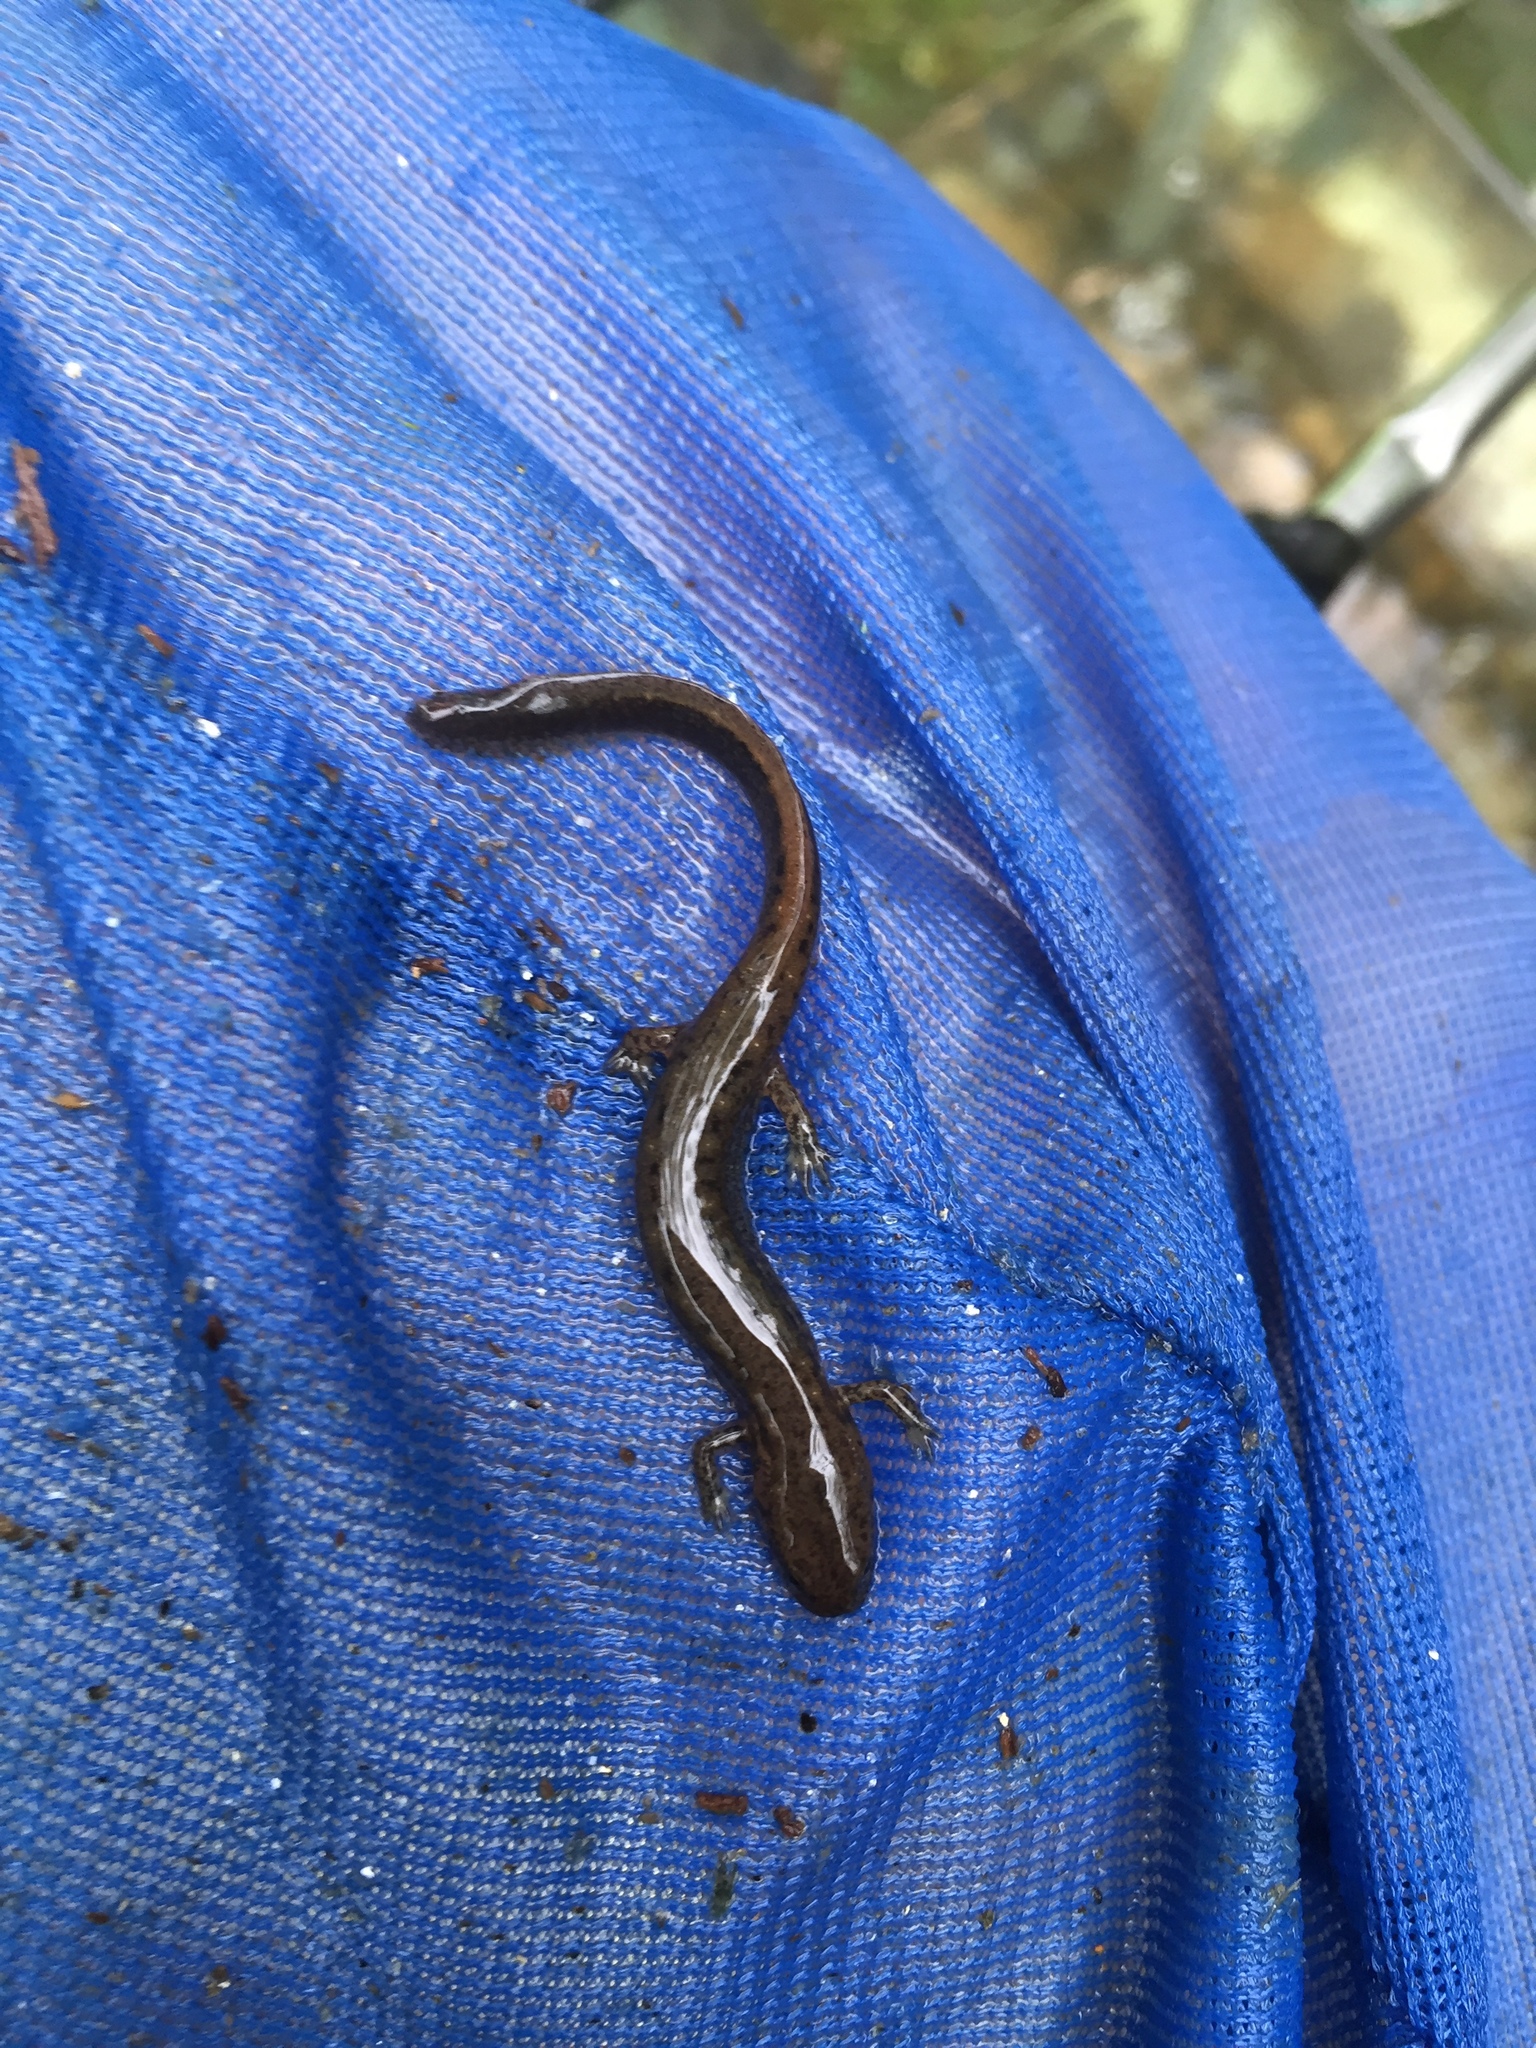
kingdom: Animalia
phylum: Chordata
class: Amphibia
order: Caudata
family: Plethodontidae
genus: Eurycea
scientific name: Eurycea bislineata
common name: Northern two-lined salamander
